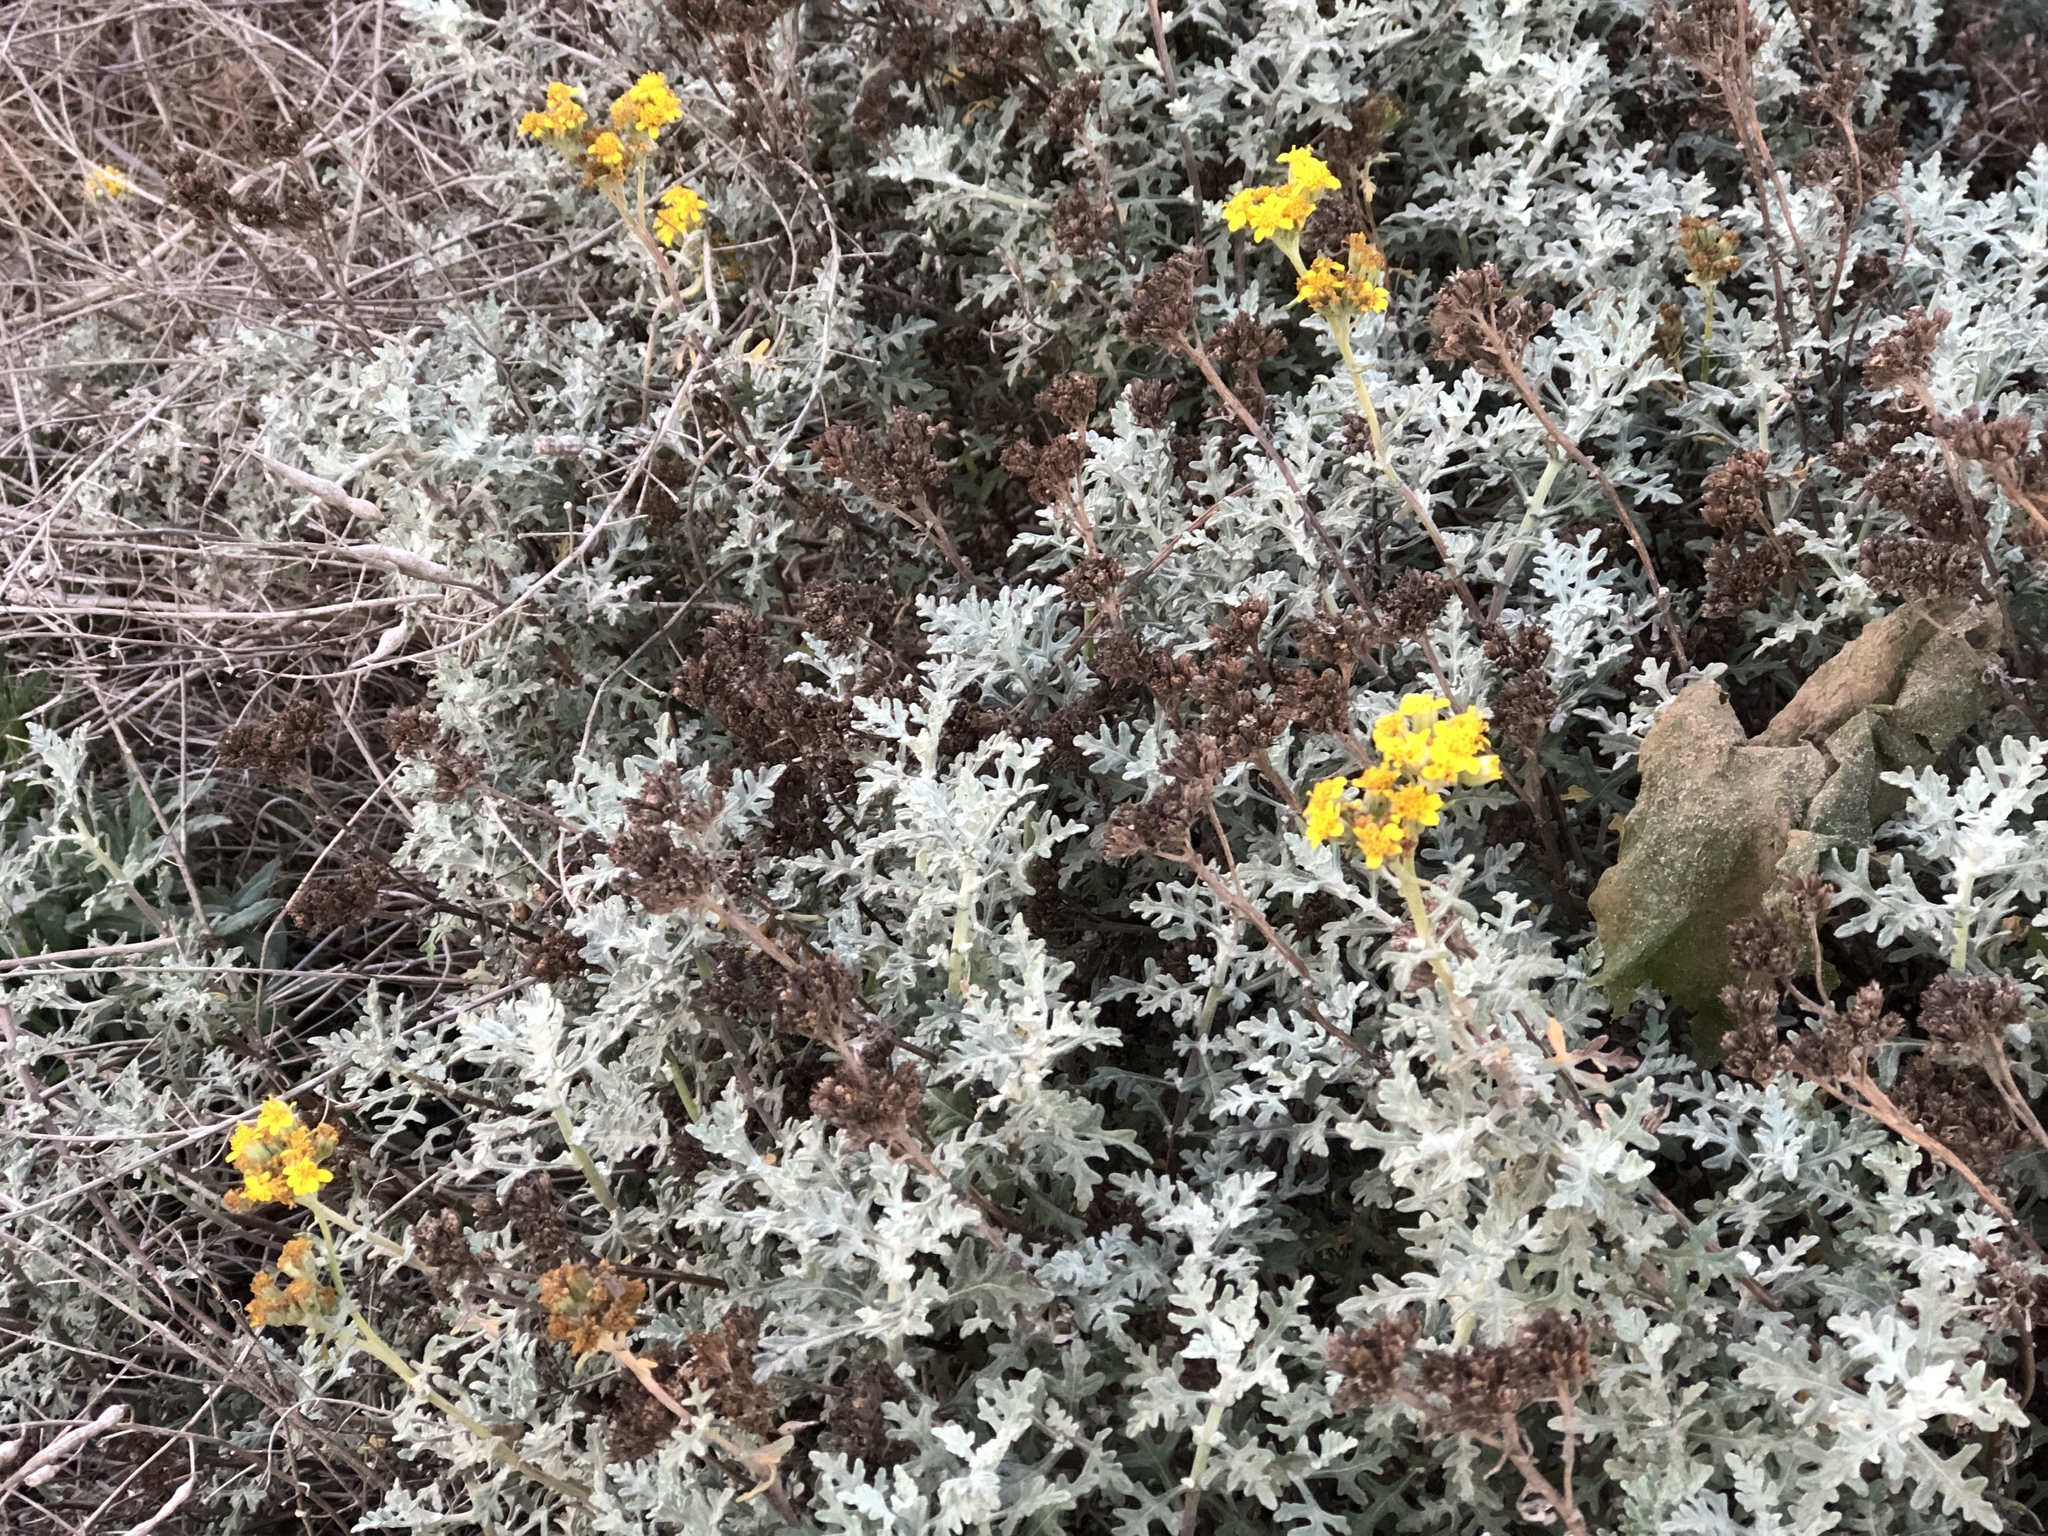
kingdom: Plantae
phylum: Tracheophyta
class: Magnoliopsida
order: Asterales
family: Asteraceae
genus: Eriophyllum
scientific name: Eriophyllum staechadifolium
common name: Lizardtail
